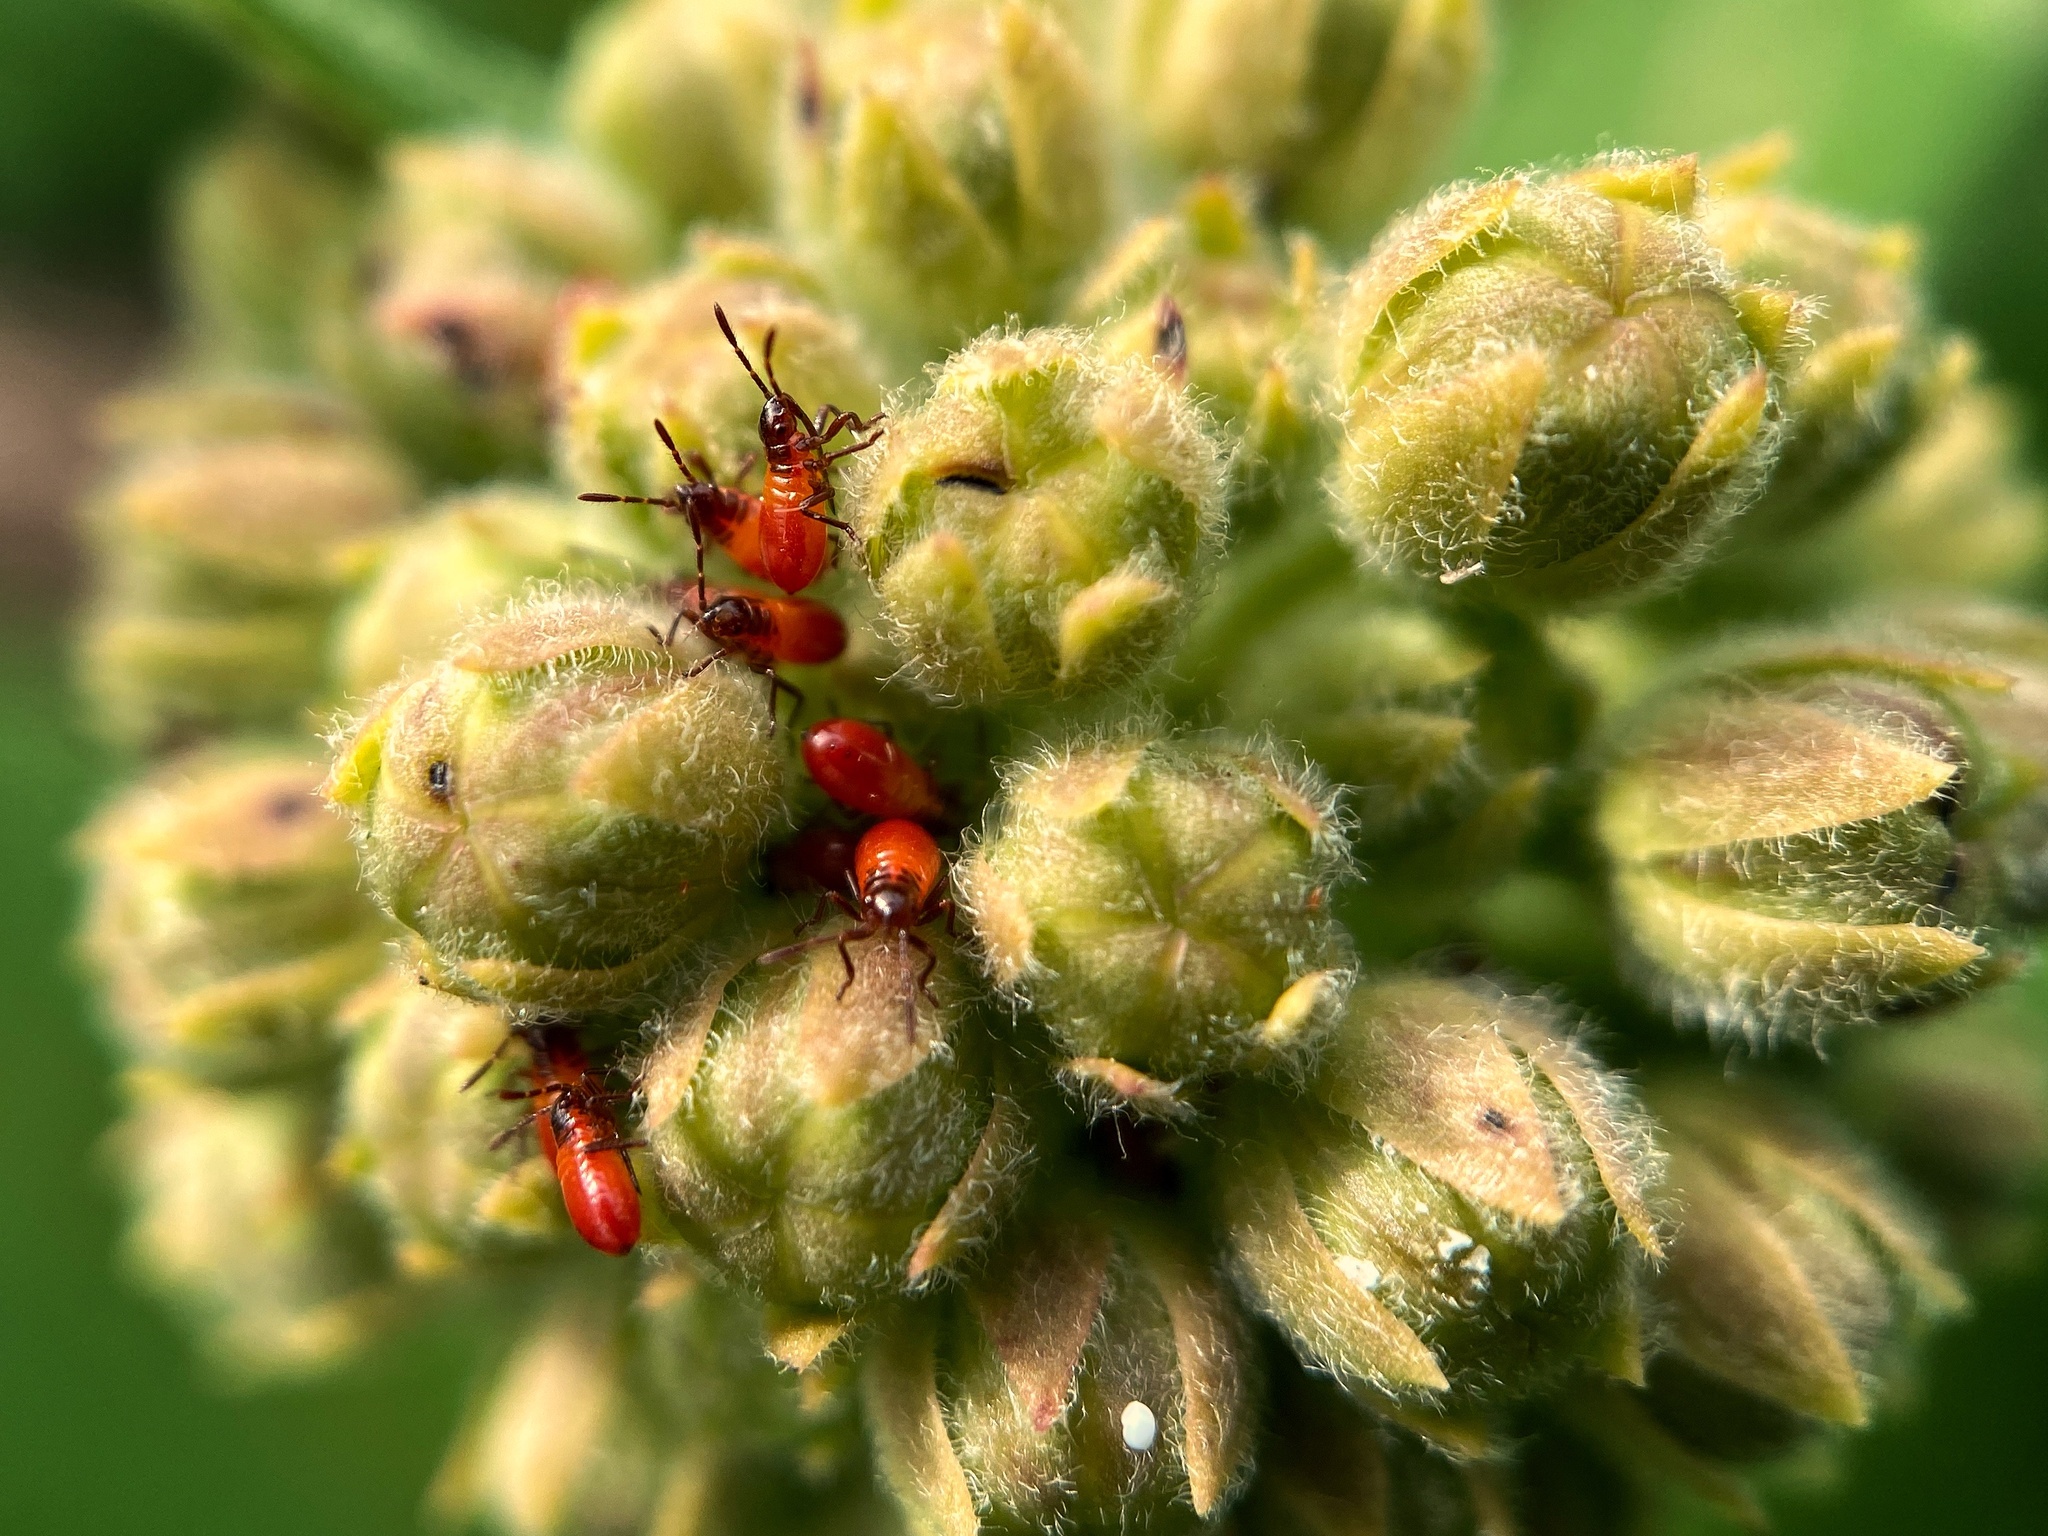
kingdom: Animalia
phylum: Arthropoda
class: Insecta
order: Hemiptera
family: Lygaeidae
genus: Oncopeltus
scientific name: Oncopeltus fasciatus
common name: Large milkweed bug
